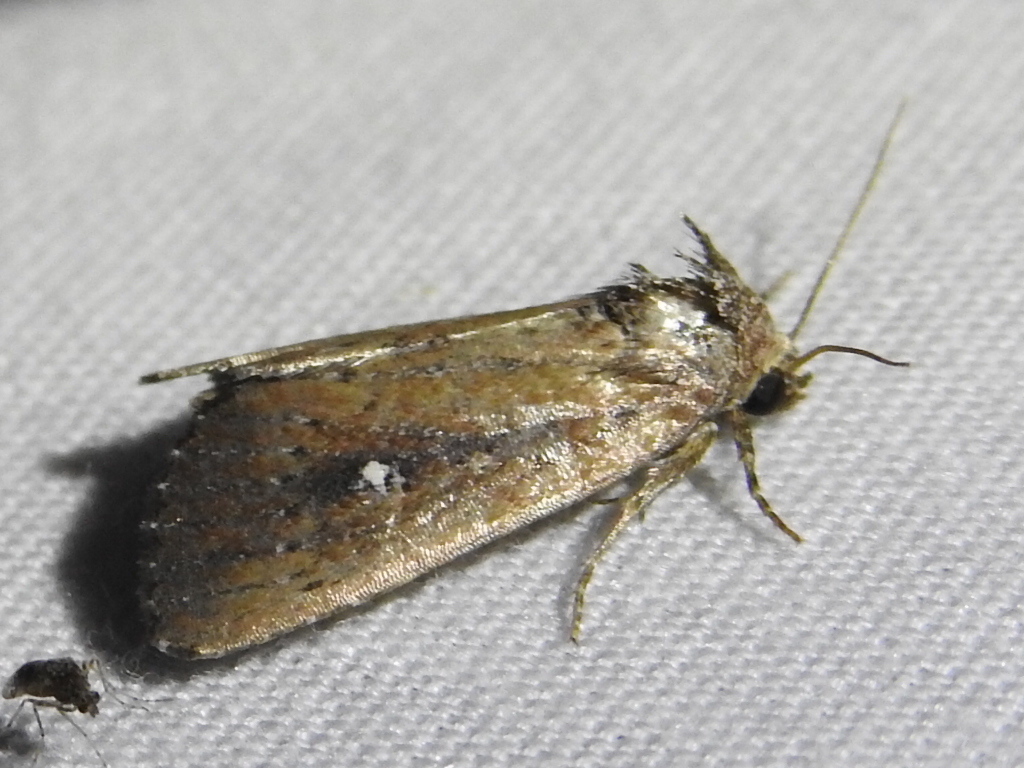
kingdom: Animalia
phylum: Arthropoda
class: Insecta
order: Lepidoptera
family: Noctuidae
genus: Condica
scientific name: Condica videns
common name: White-dotted groundling
